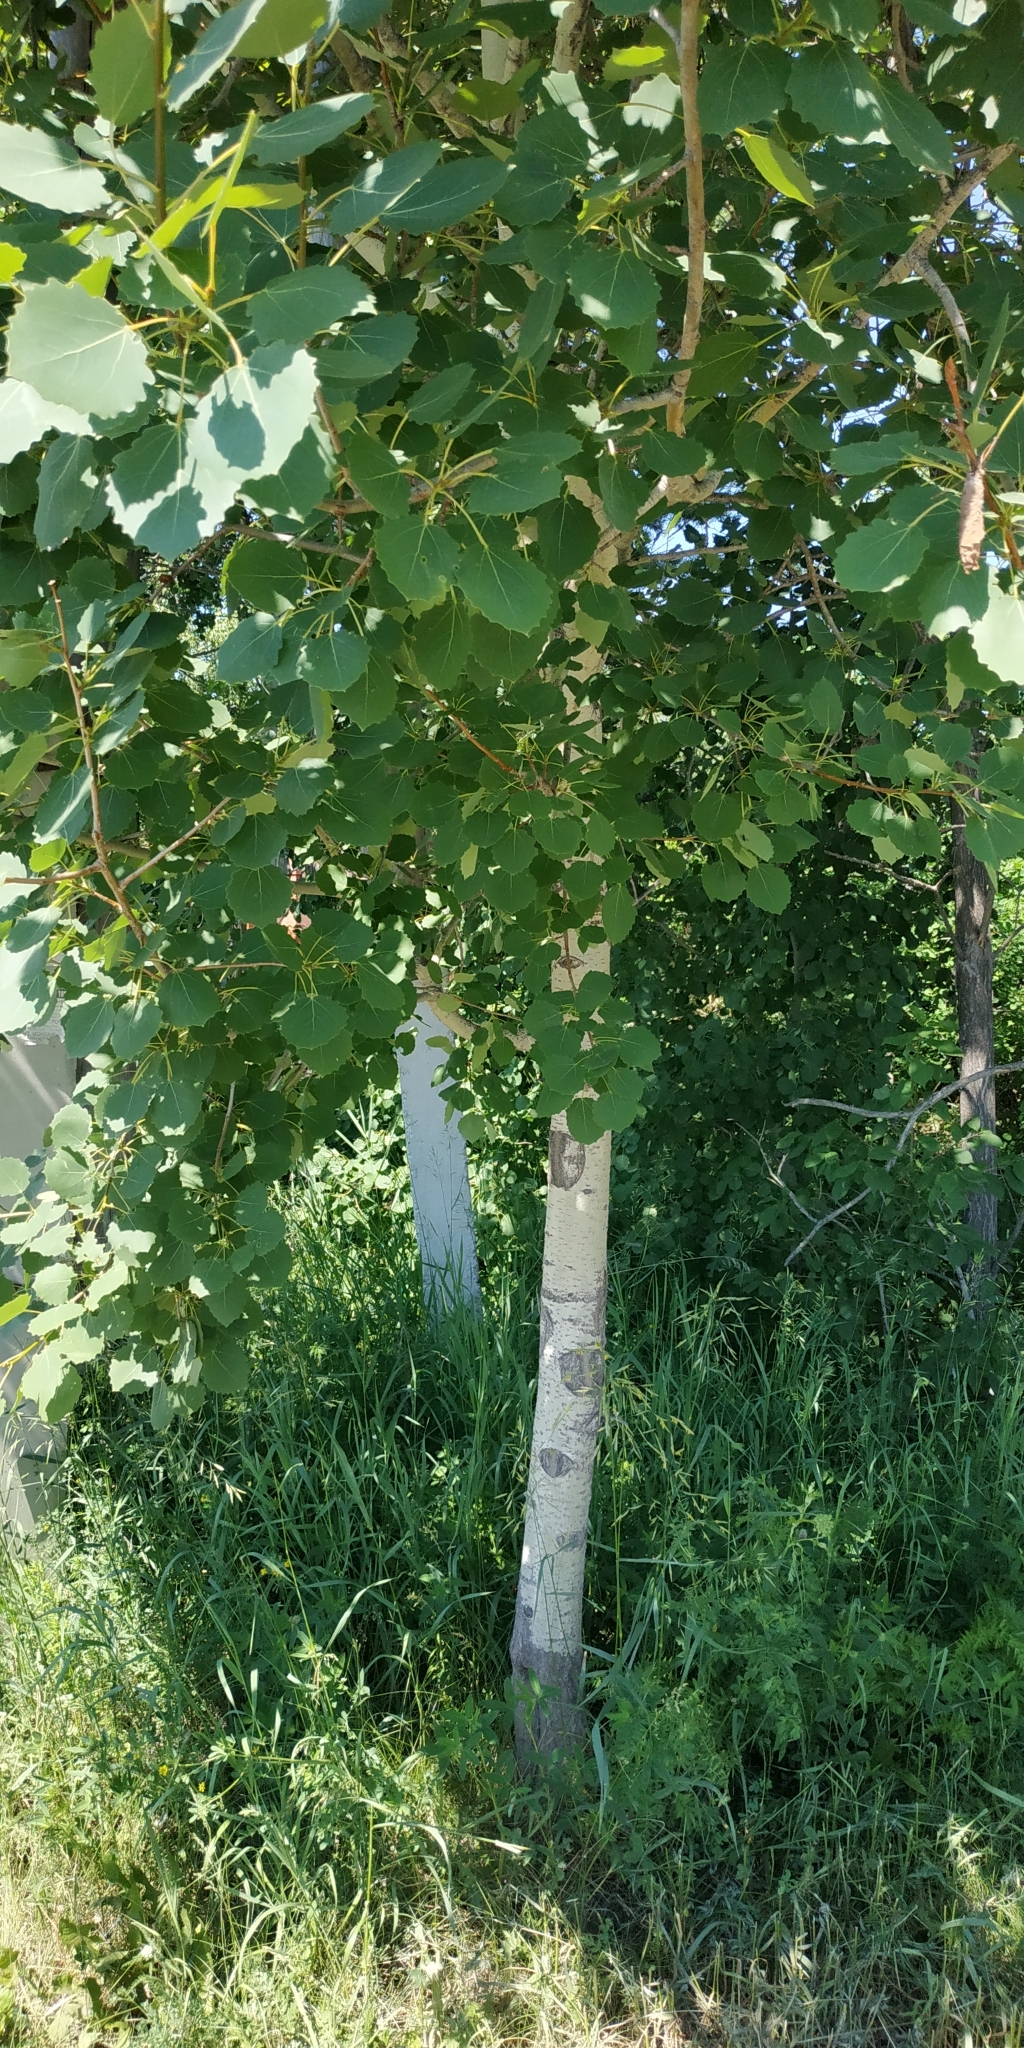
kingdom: Plantae
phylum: Tracheophyta
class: Magnoliopsida
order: Malpighiales
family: Salicaceae
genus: Populus
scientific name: Populus tremula
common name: European aspen
